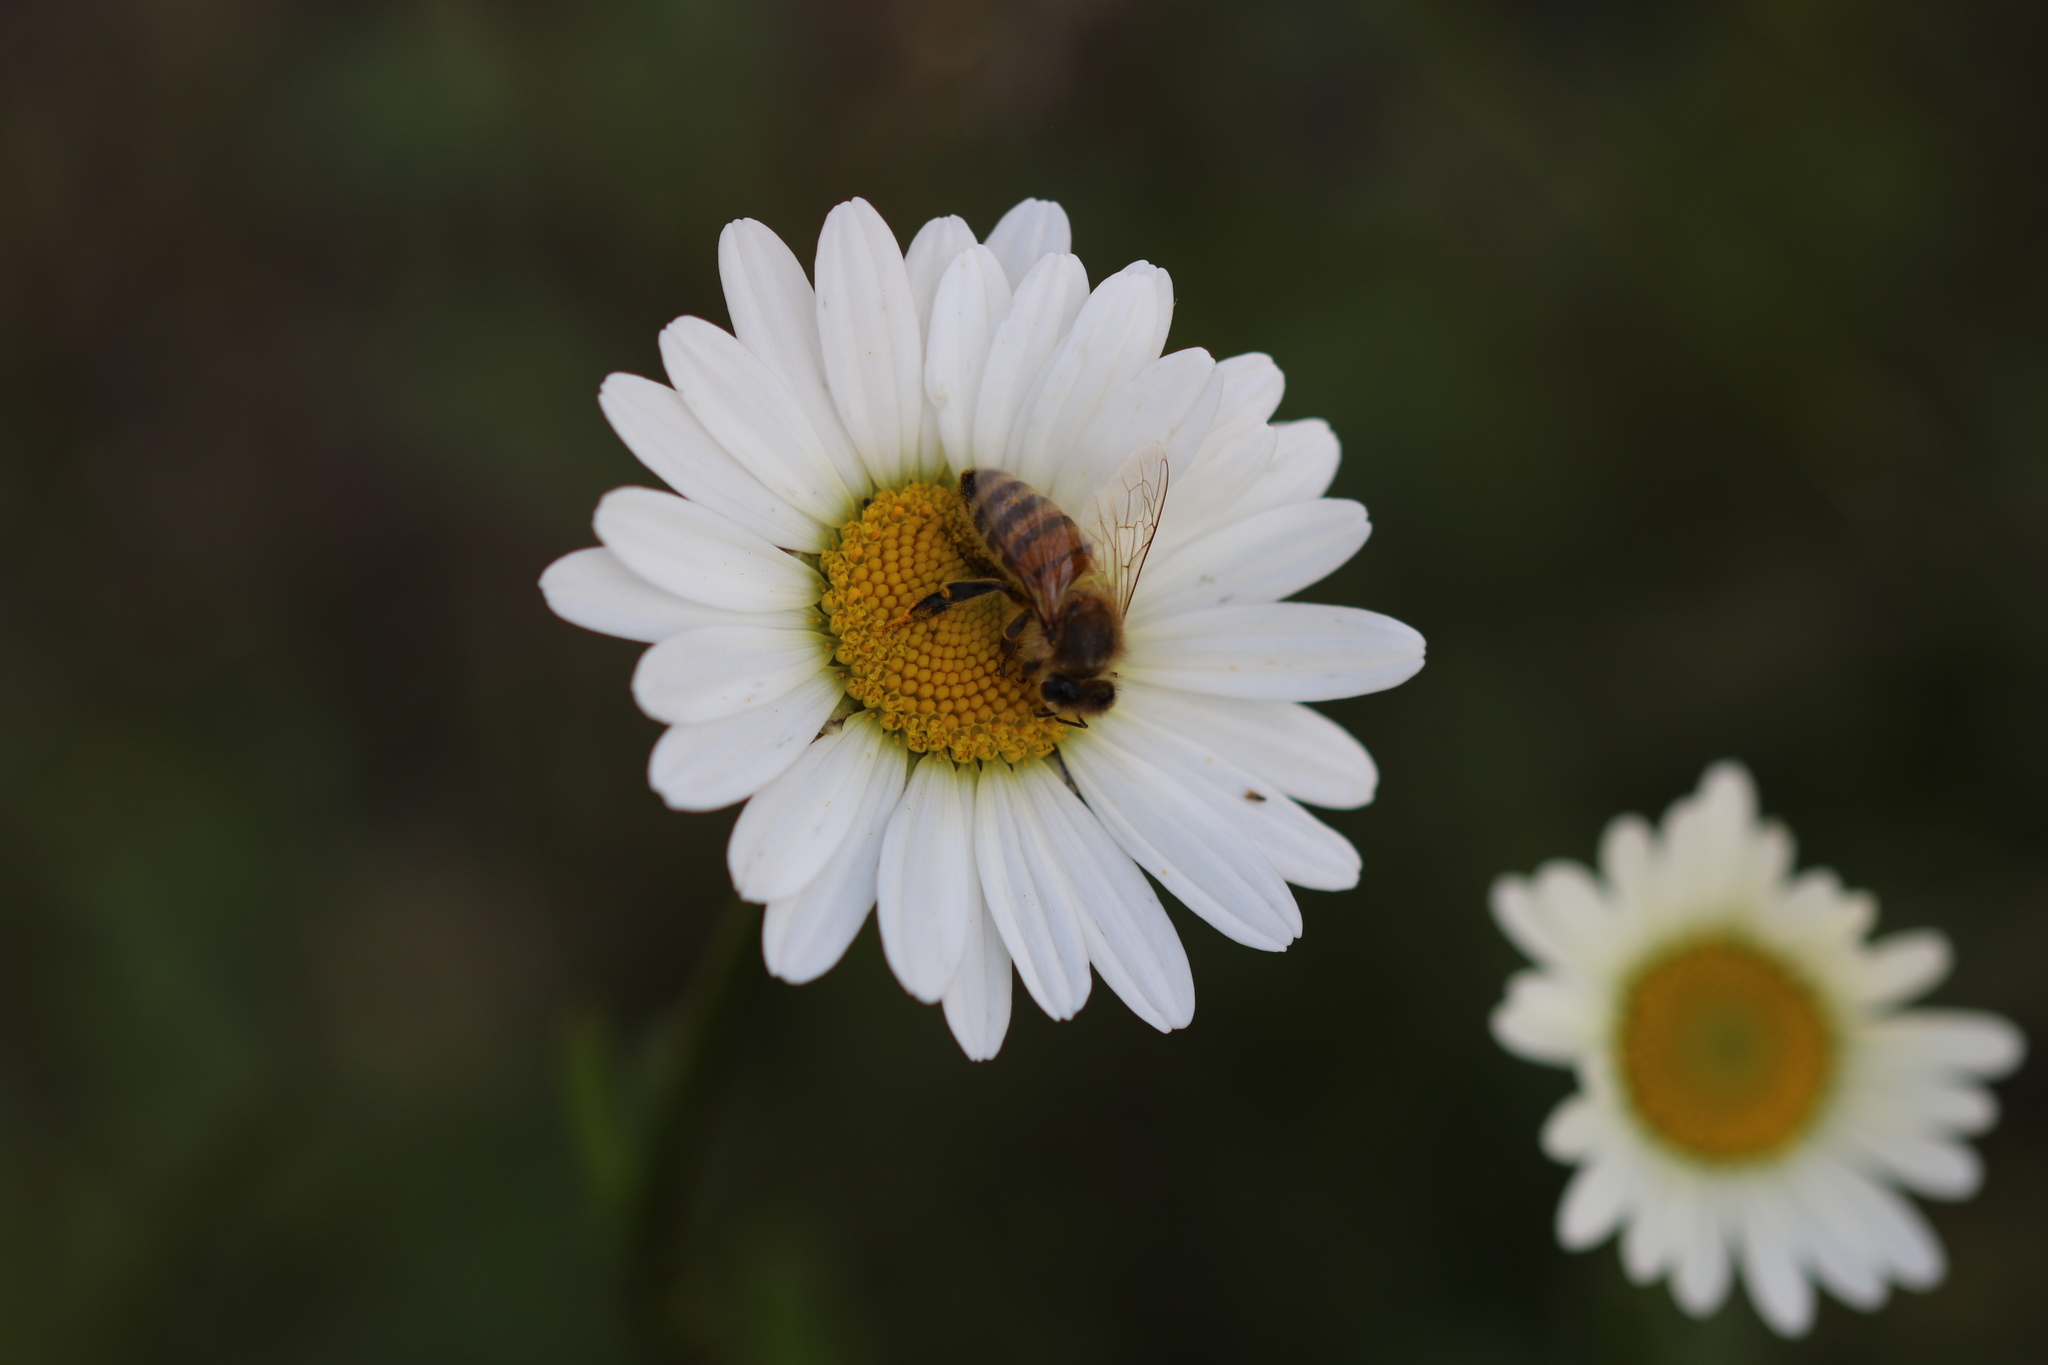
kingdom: Animalia
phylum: Arthropoda
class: Insecta
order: Hymenoptera
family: Apidae
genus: Apis
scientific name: Apis mellifera
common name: Honey bee
